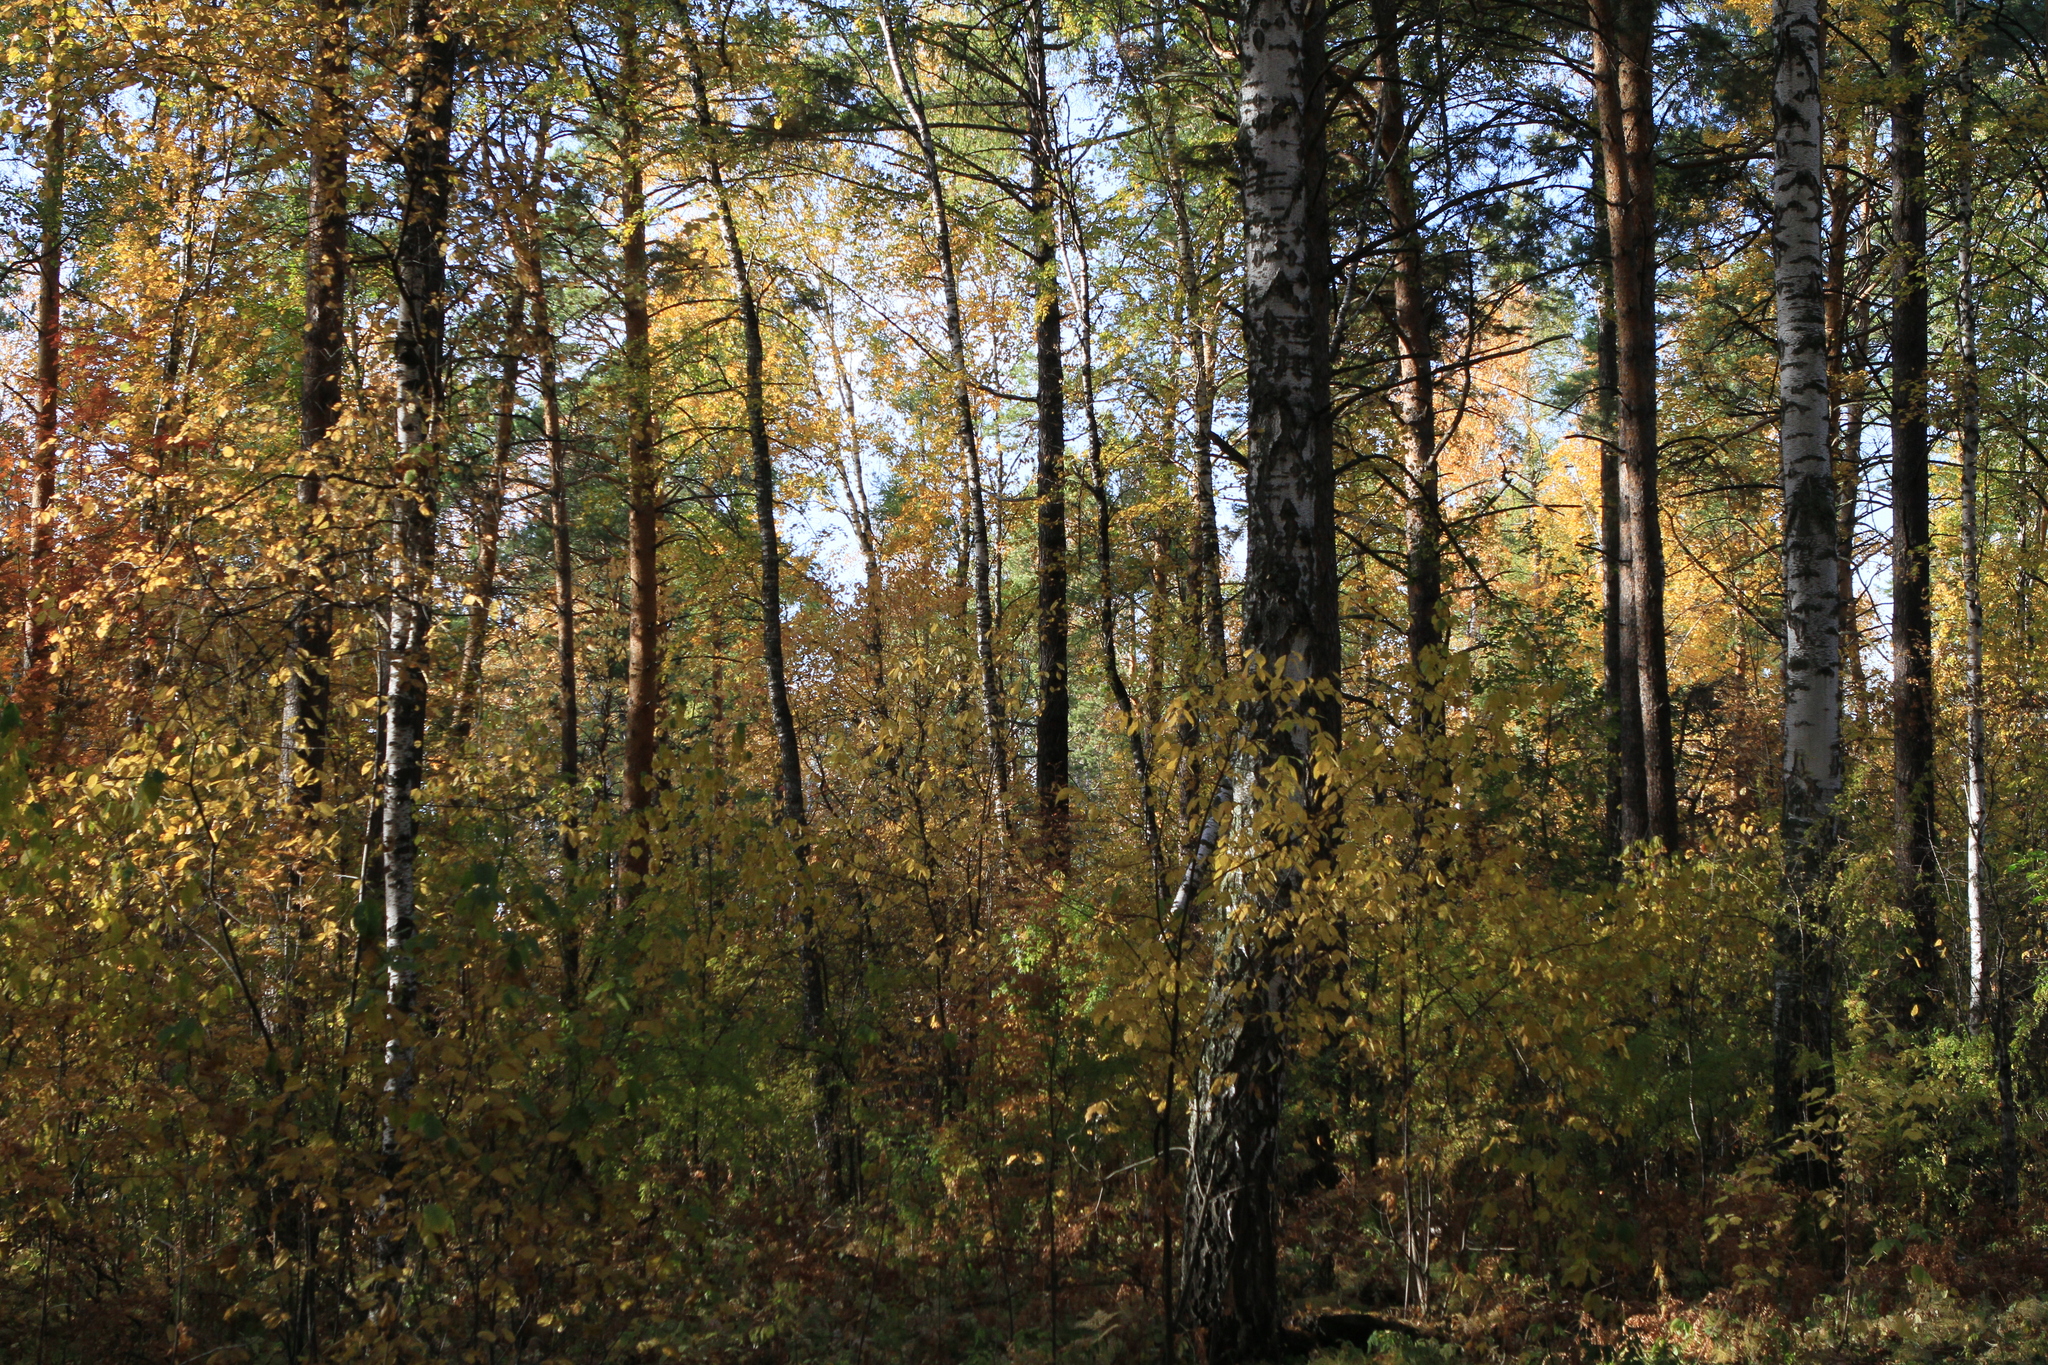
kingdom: Plantae
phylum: Tracheophyta
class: Pinopsida
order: Pinales
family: Pinaceae
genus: Pinus
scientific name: Pinus sylvestris
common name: Scots pine
